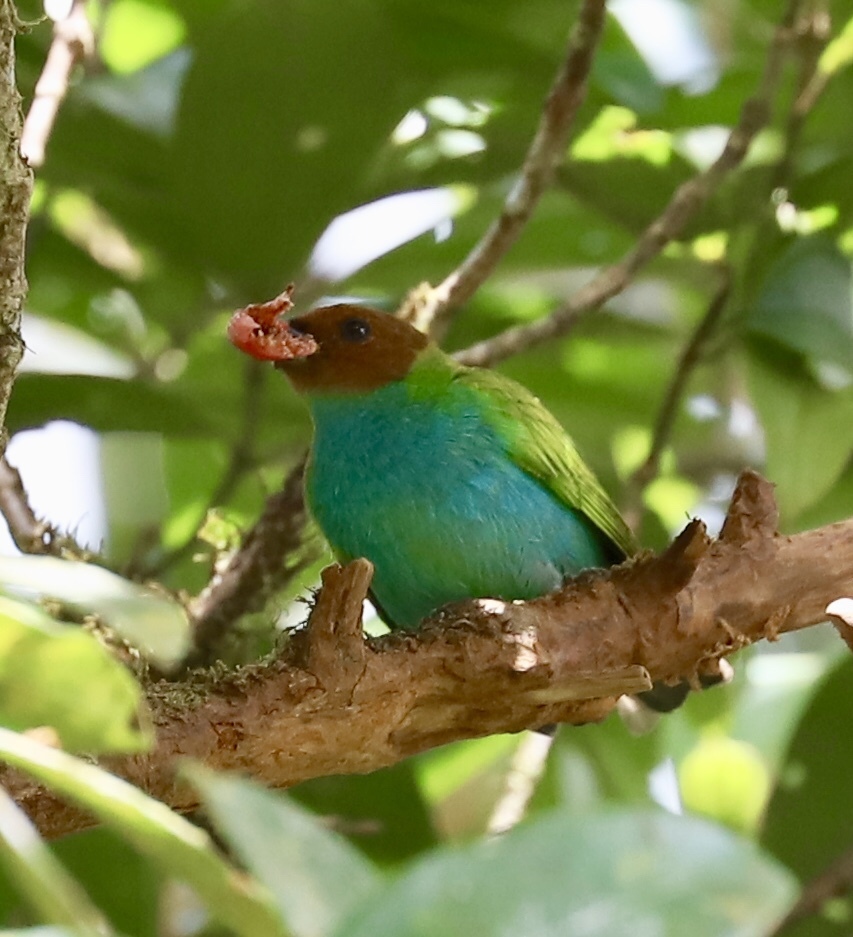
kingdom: Animalia
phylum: Chordata
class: Aves
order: Passeriformes
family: Thraupidae
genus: Tangara
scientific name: Tangara gyrola
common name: Bay-headed tanager
